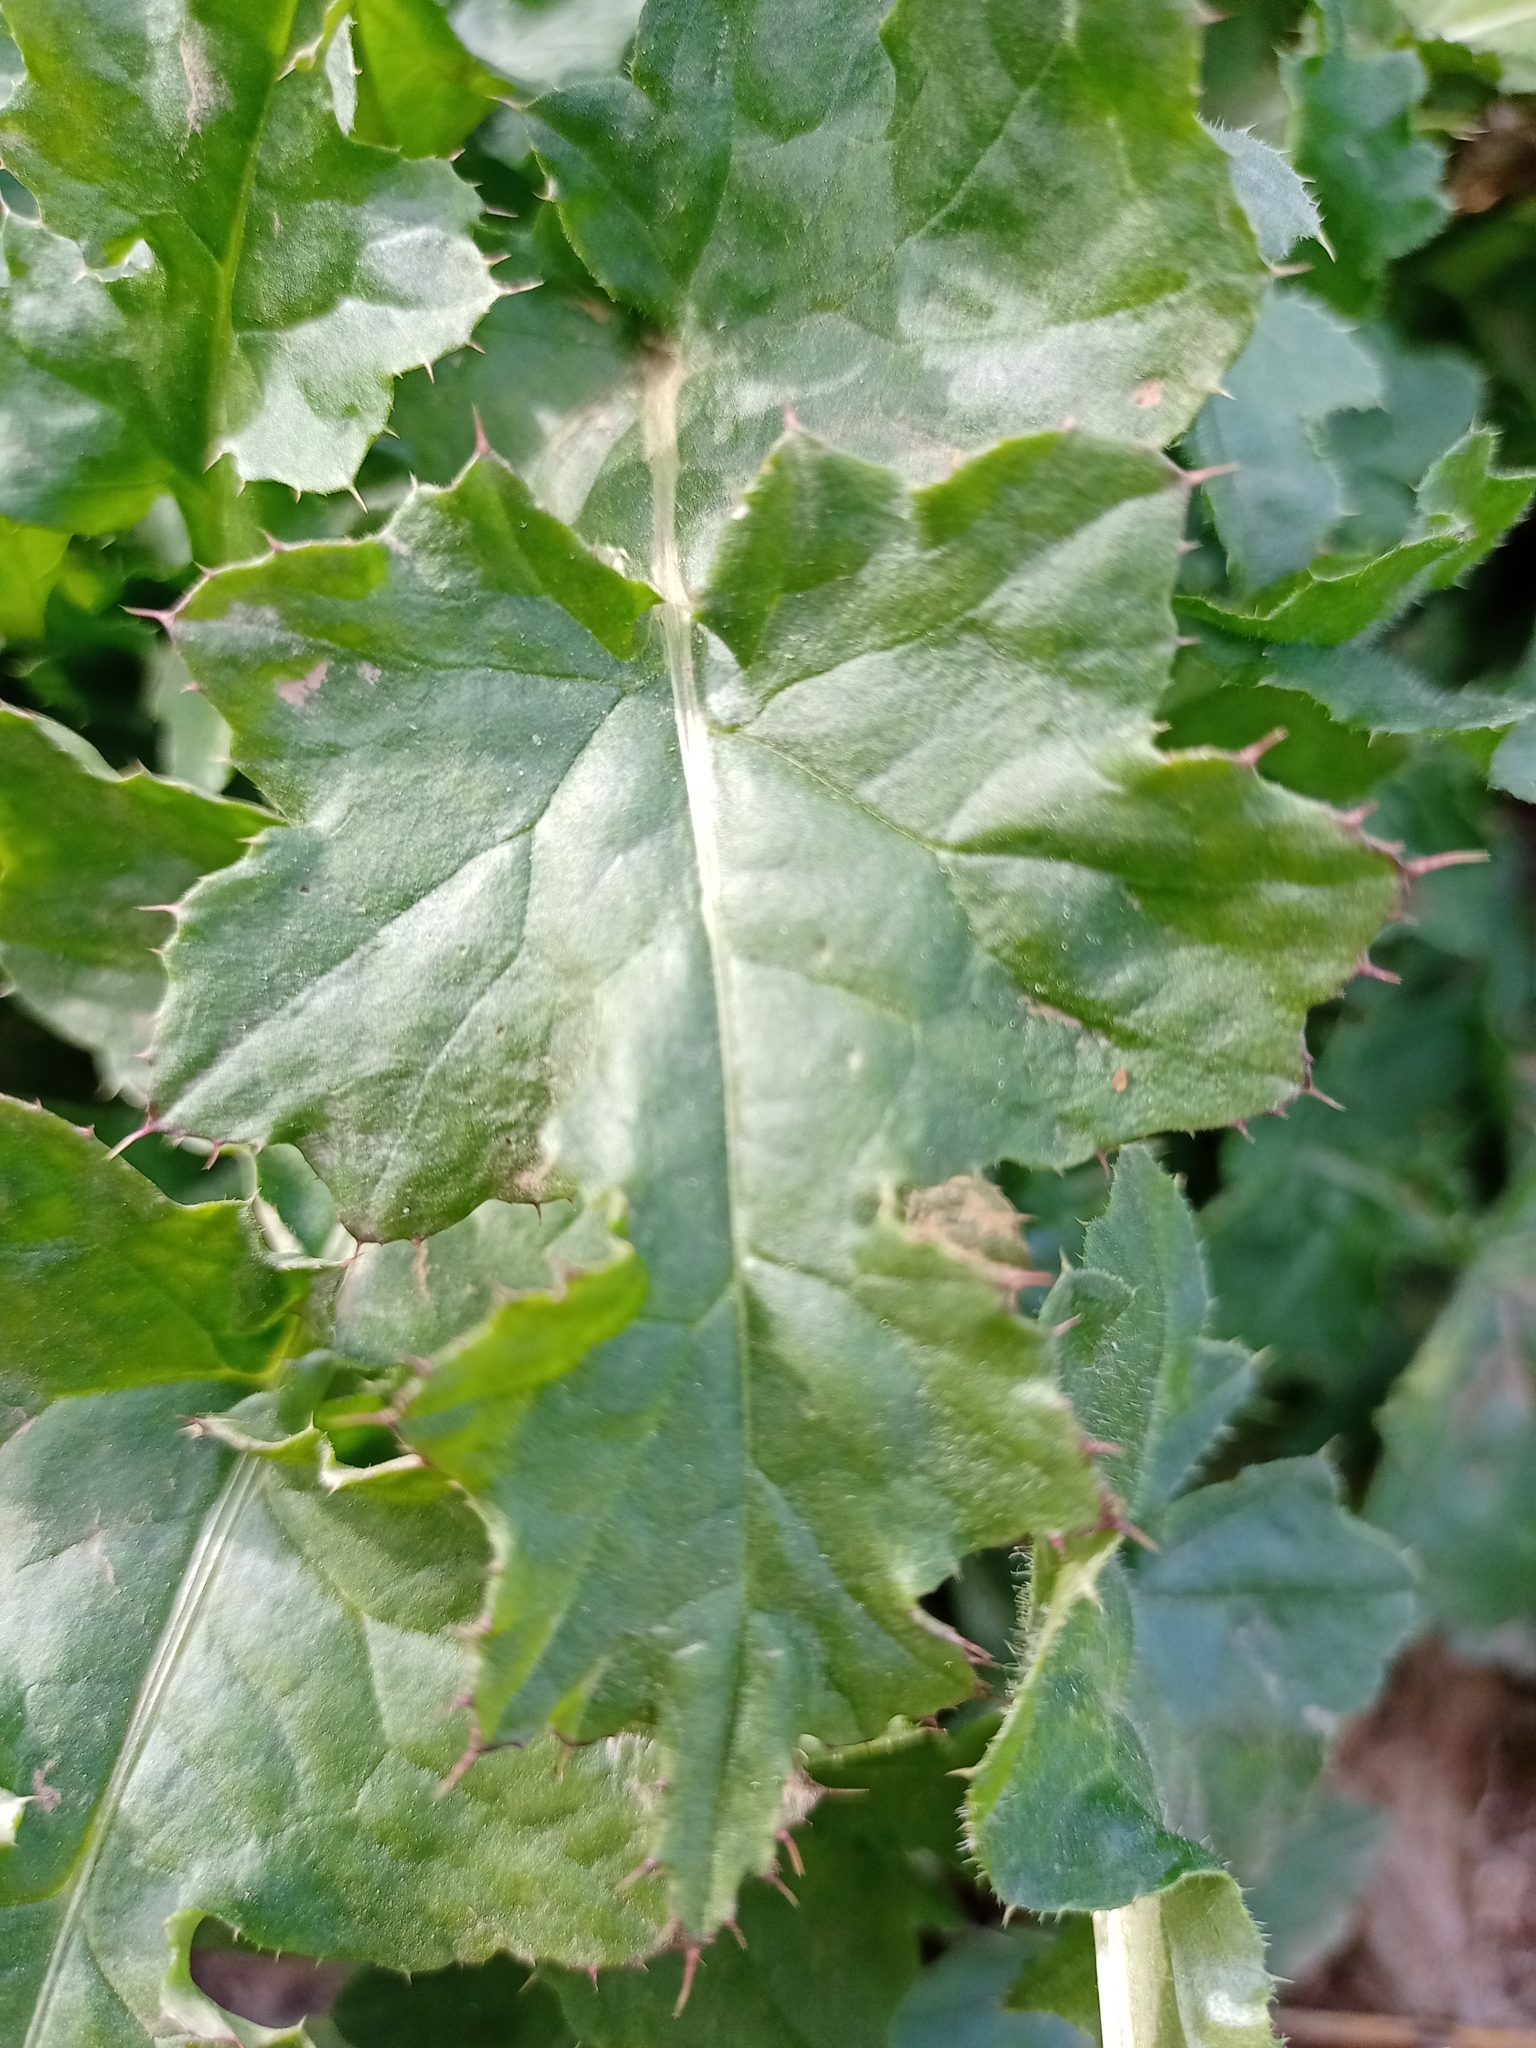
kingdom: Plantae
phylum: Tracheophyta
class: Magnoliopsida
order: Asterales
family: Asteraceae
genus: Carduus
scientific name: Carduus crispus
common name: Welted thistle
